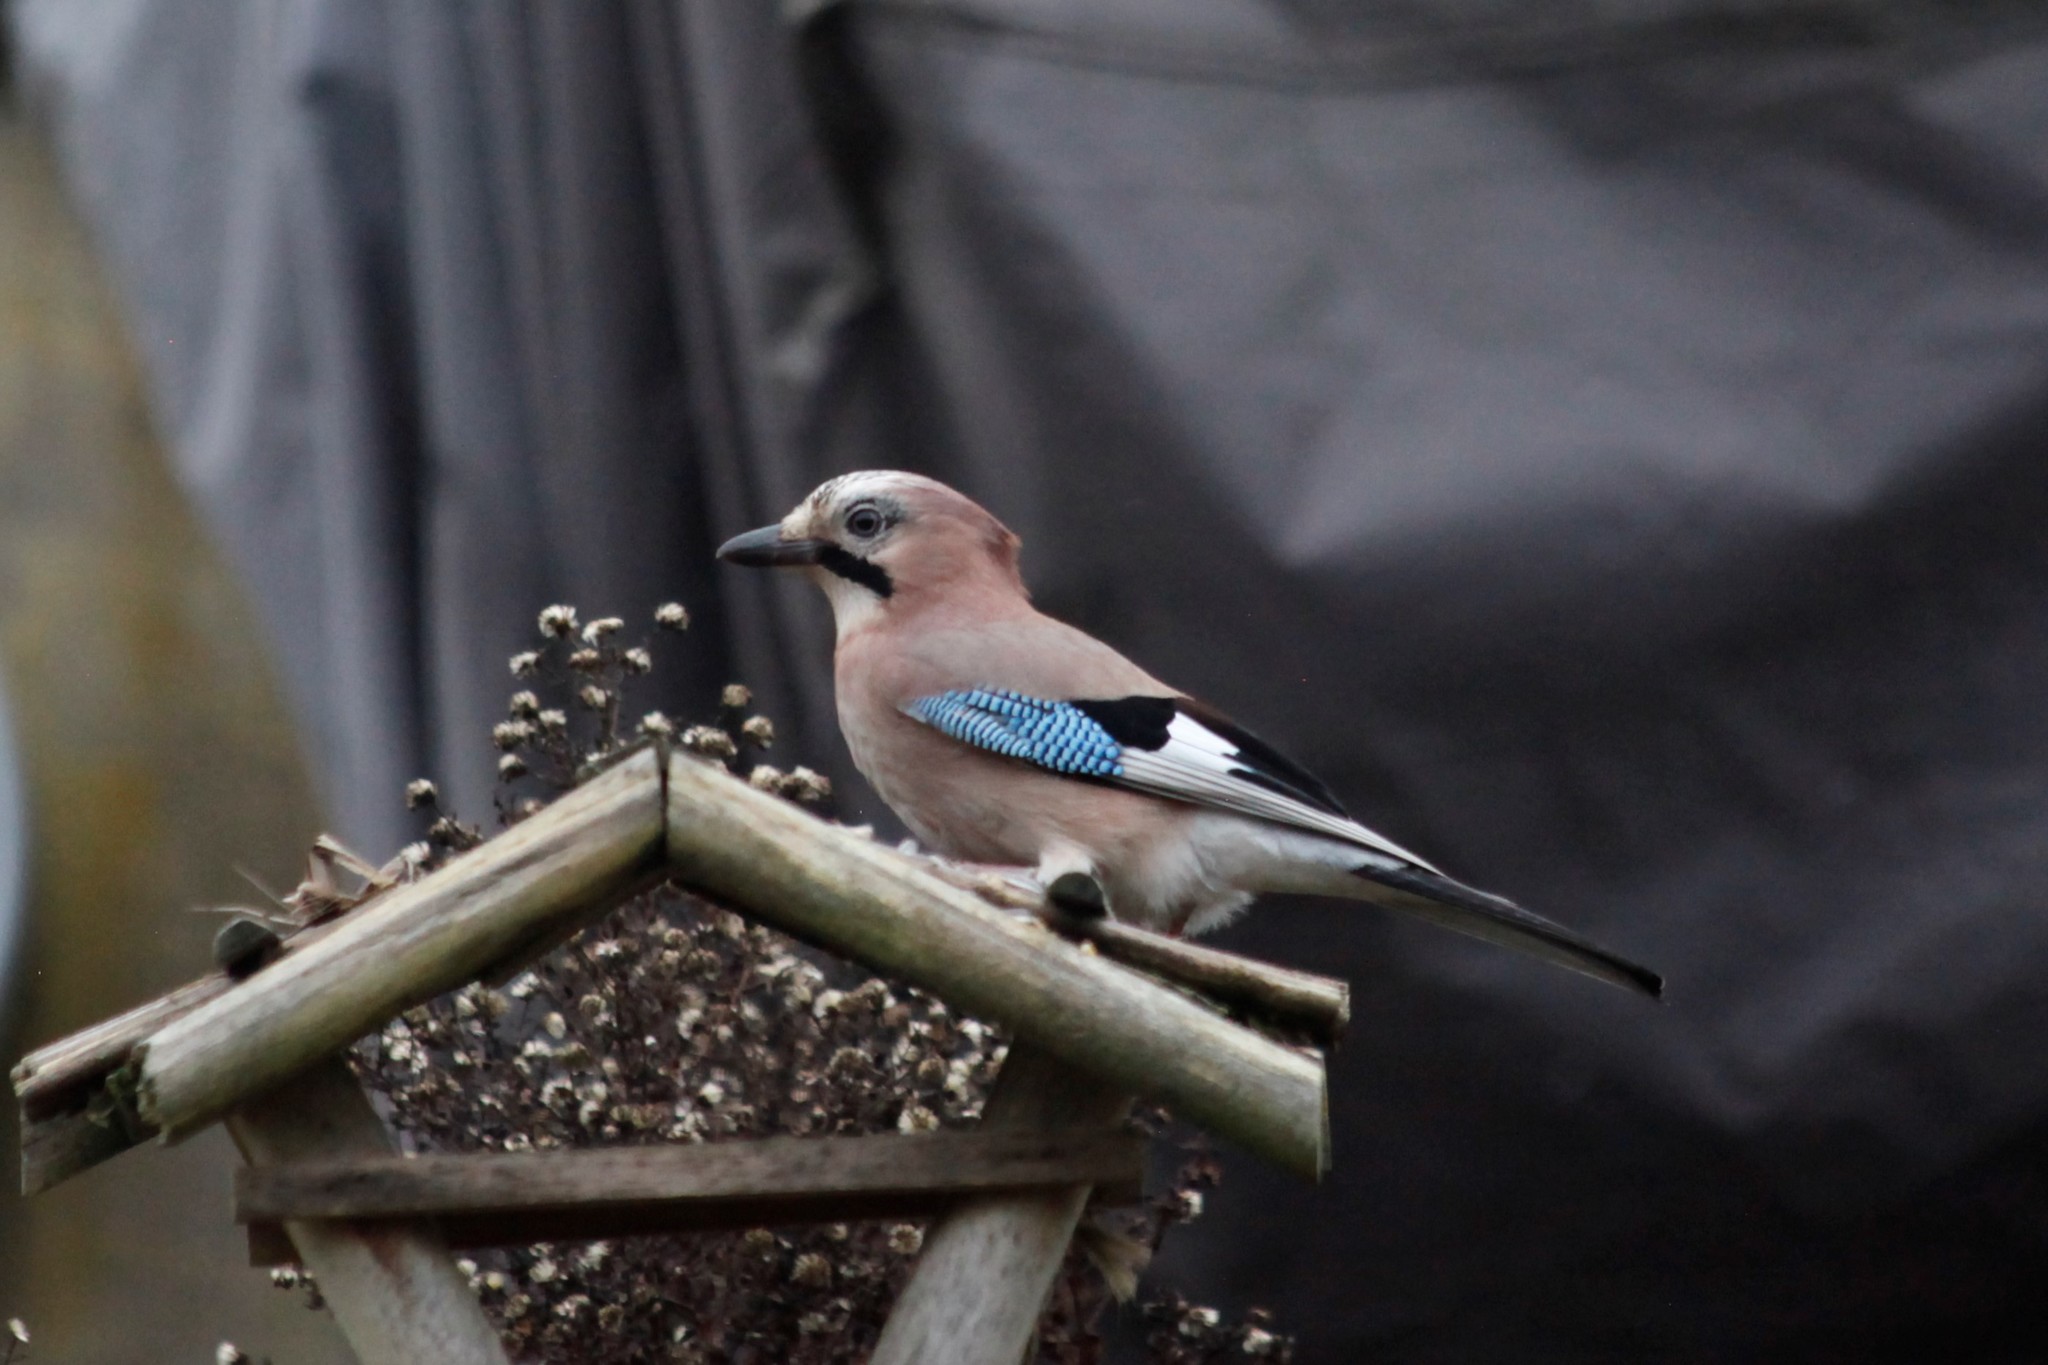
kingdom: Animalia
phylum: Chordata
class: Aves
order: Passeriformes
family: Corvidae
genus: Garrulus
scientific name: Garrulus glandarius
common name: Eurasian jay
